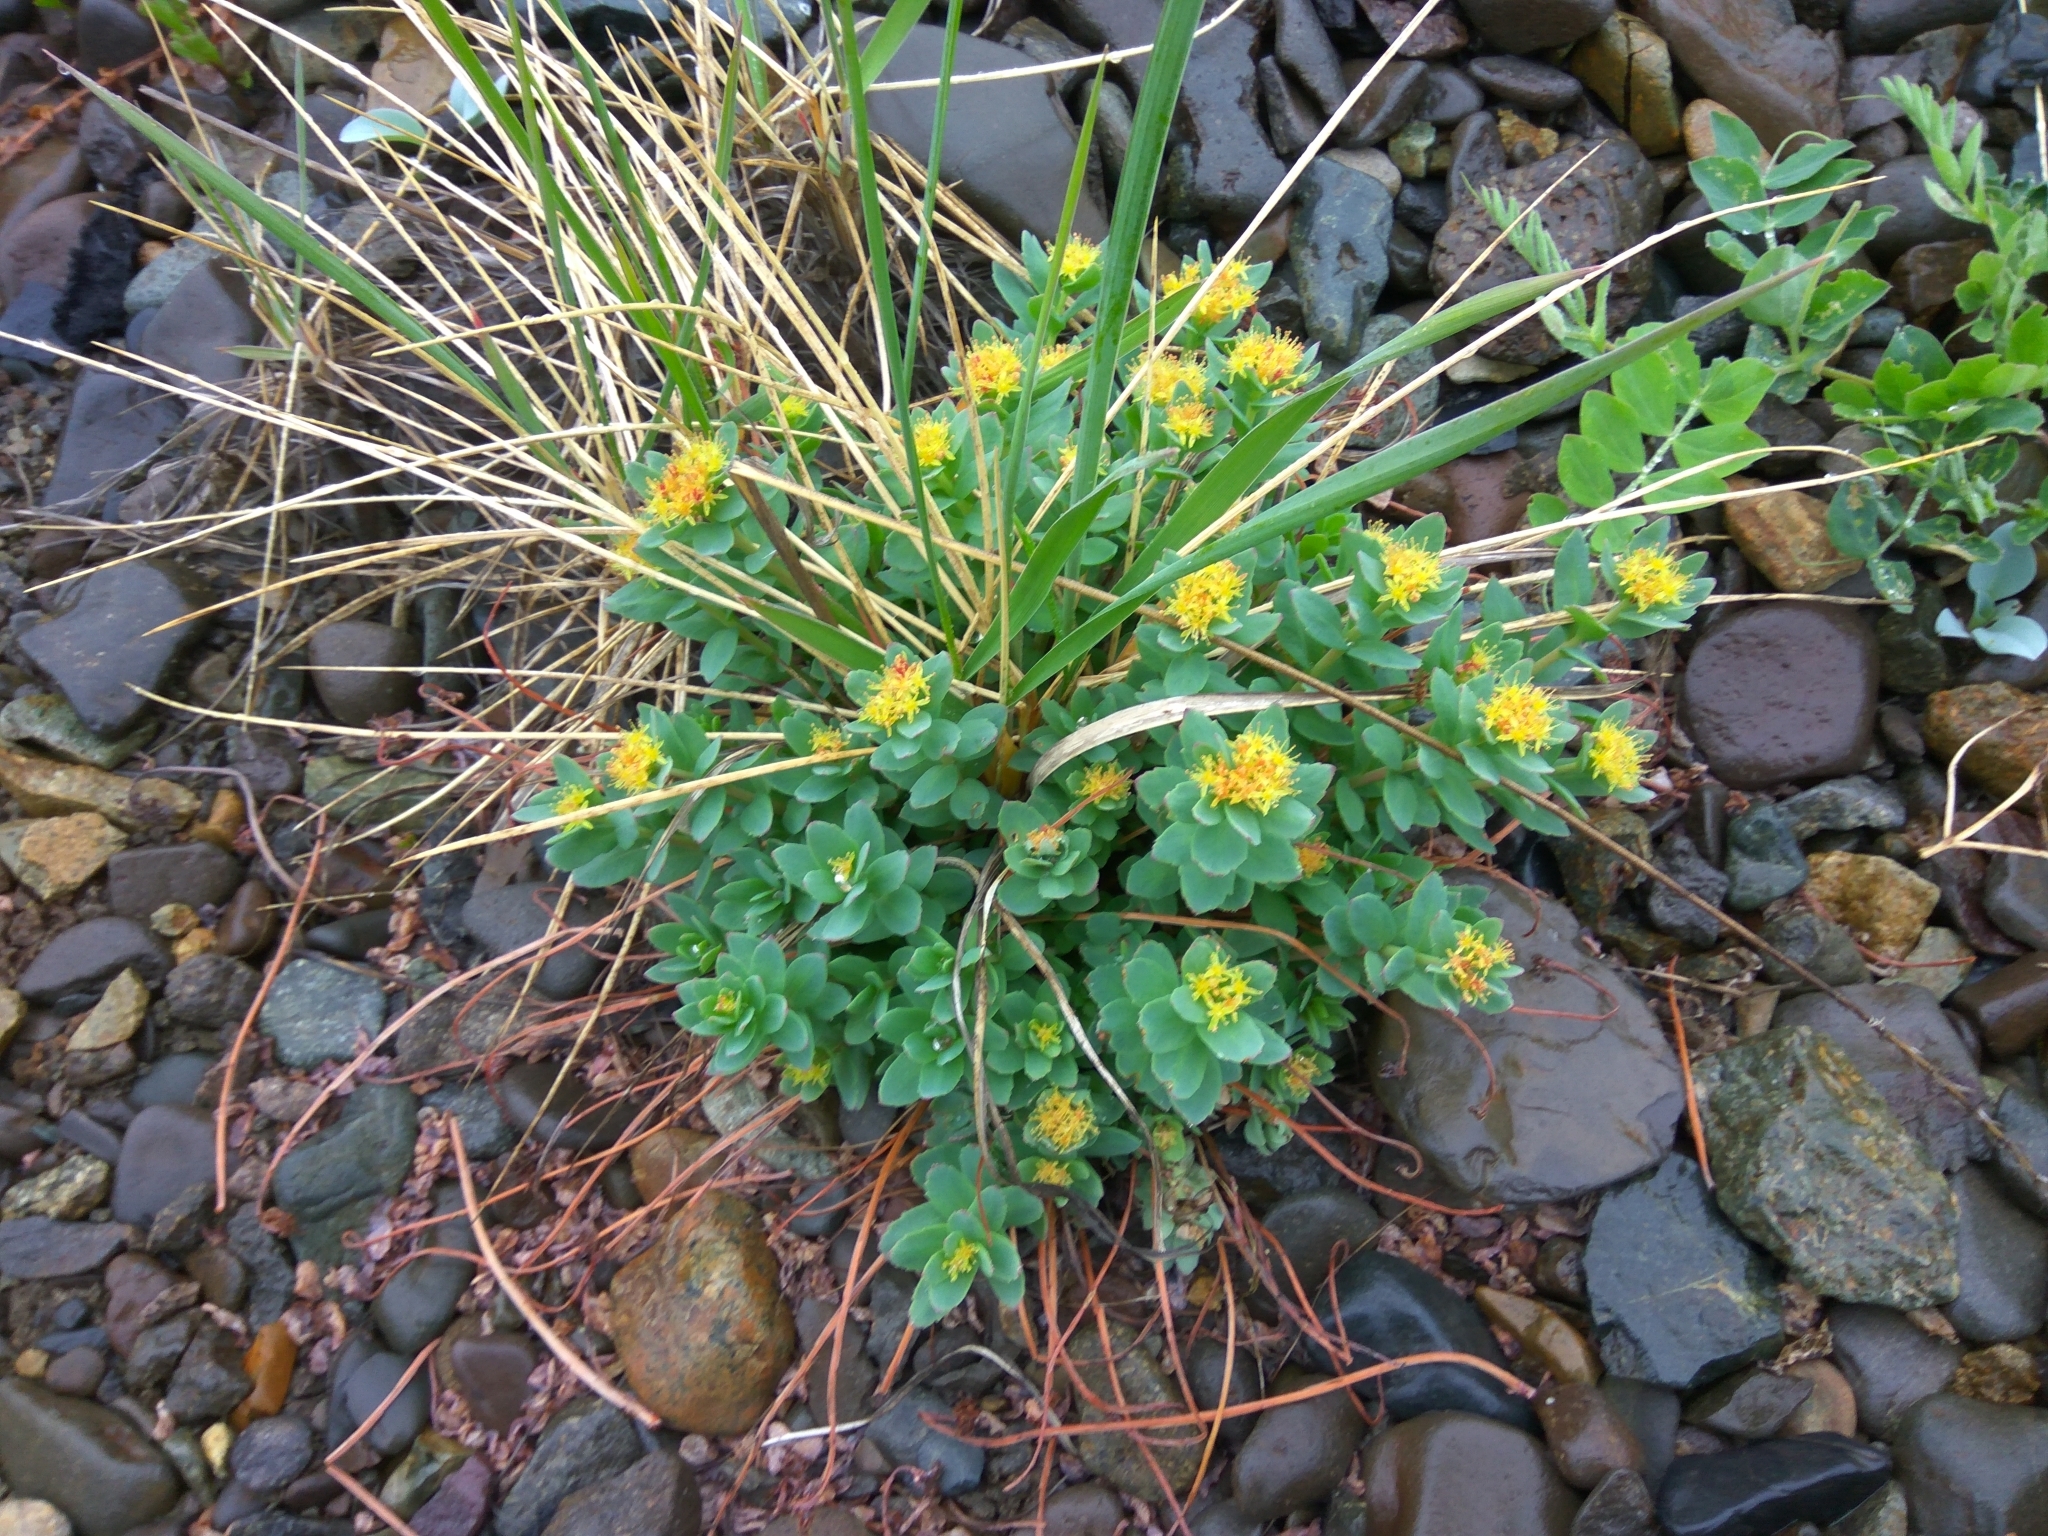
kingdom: Plantae
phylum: Tracheophyta
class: Magnoliopsida
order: Saxifragales
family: Crassulaceae
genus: Rhodiola
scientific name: Rhodiola rosea
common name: Roseroot
